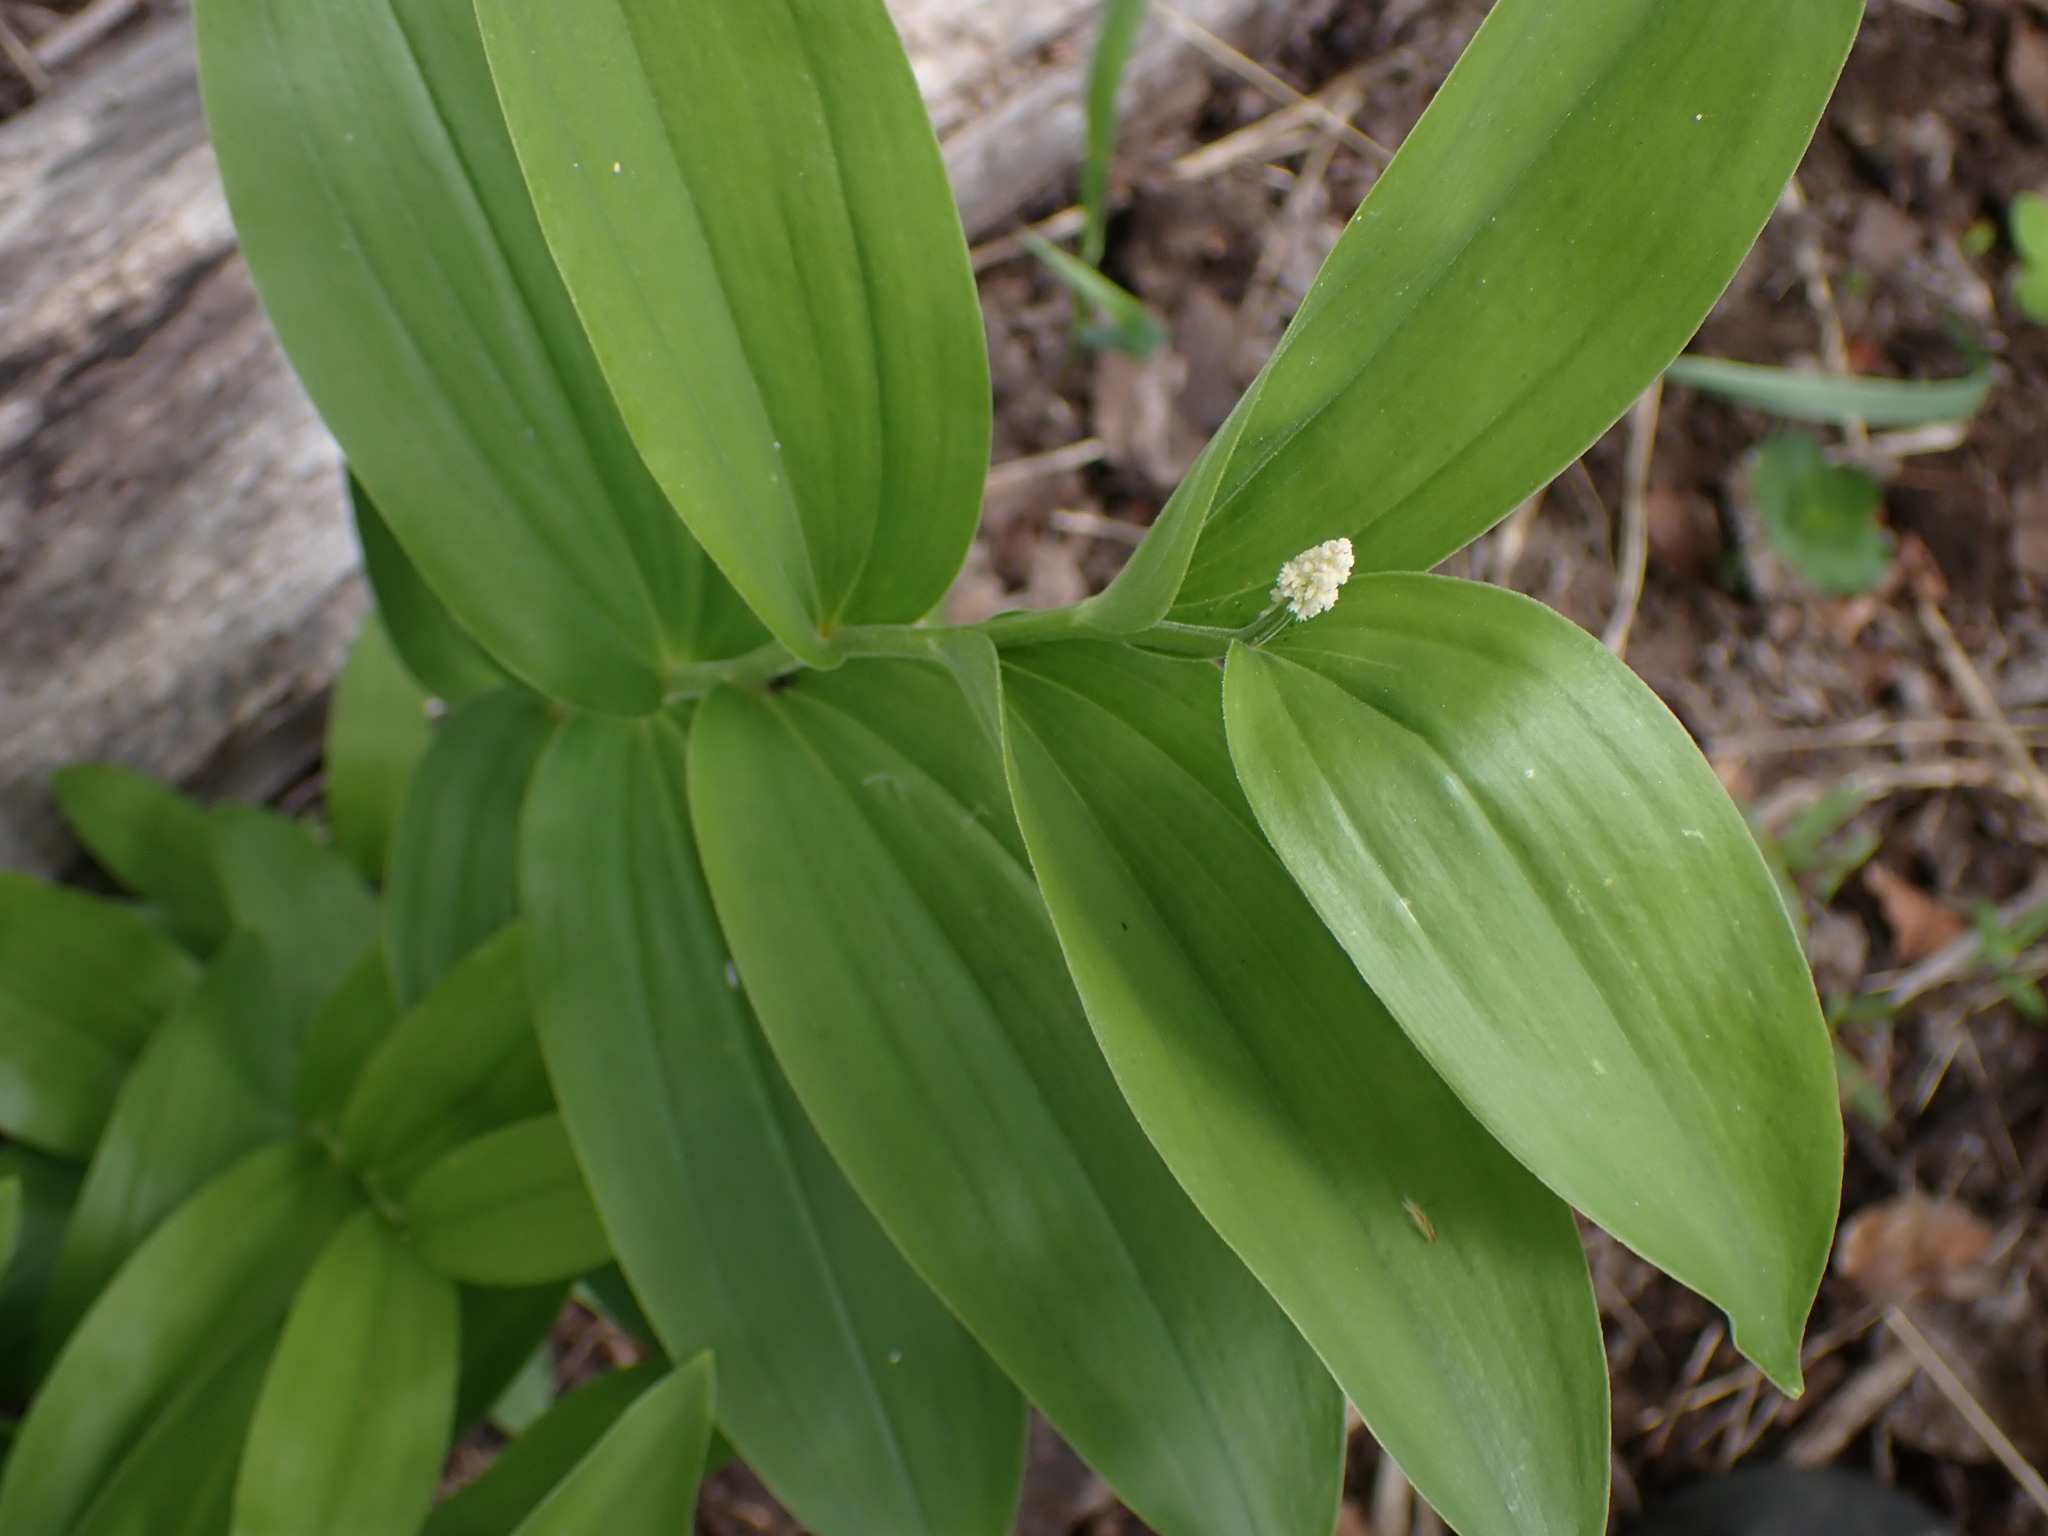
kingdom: Plantae
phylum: Tracheophyta
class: Liliopsida
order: Asparagales
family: Asparagaceae
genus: Maianthemum
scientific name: Maianthemum racemosum
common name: False spikenard
